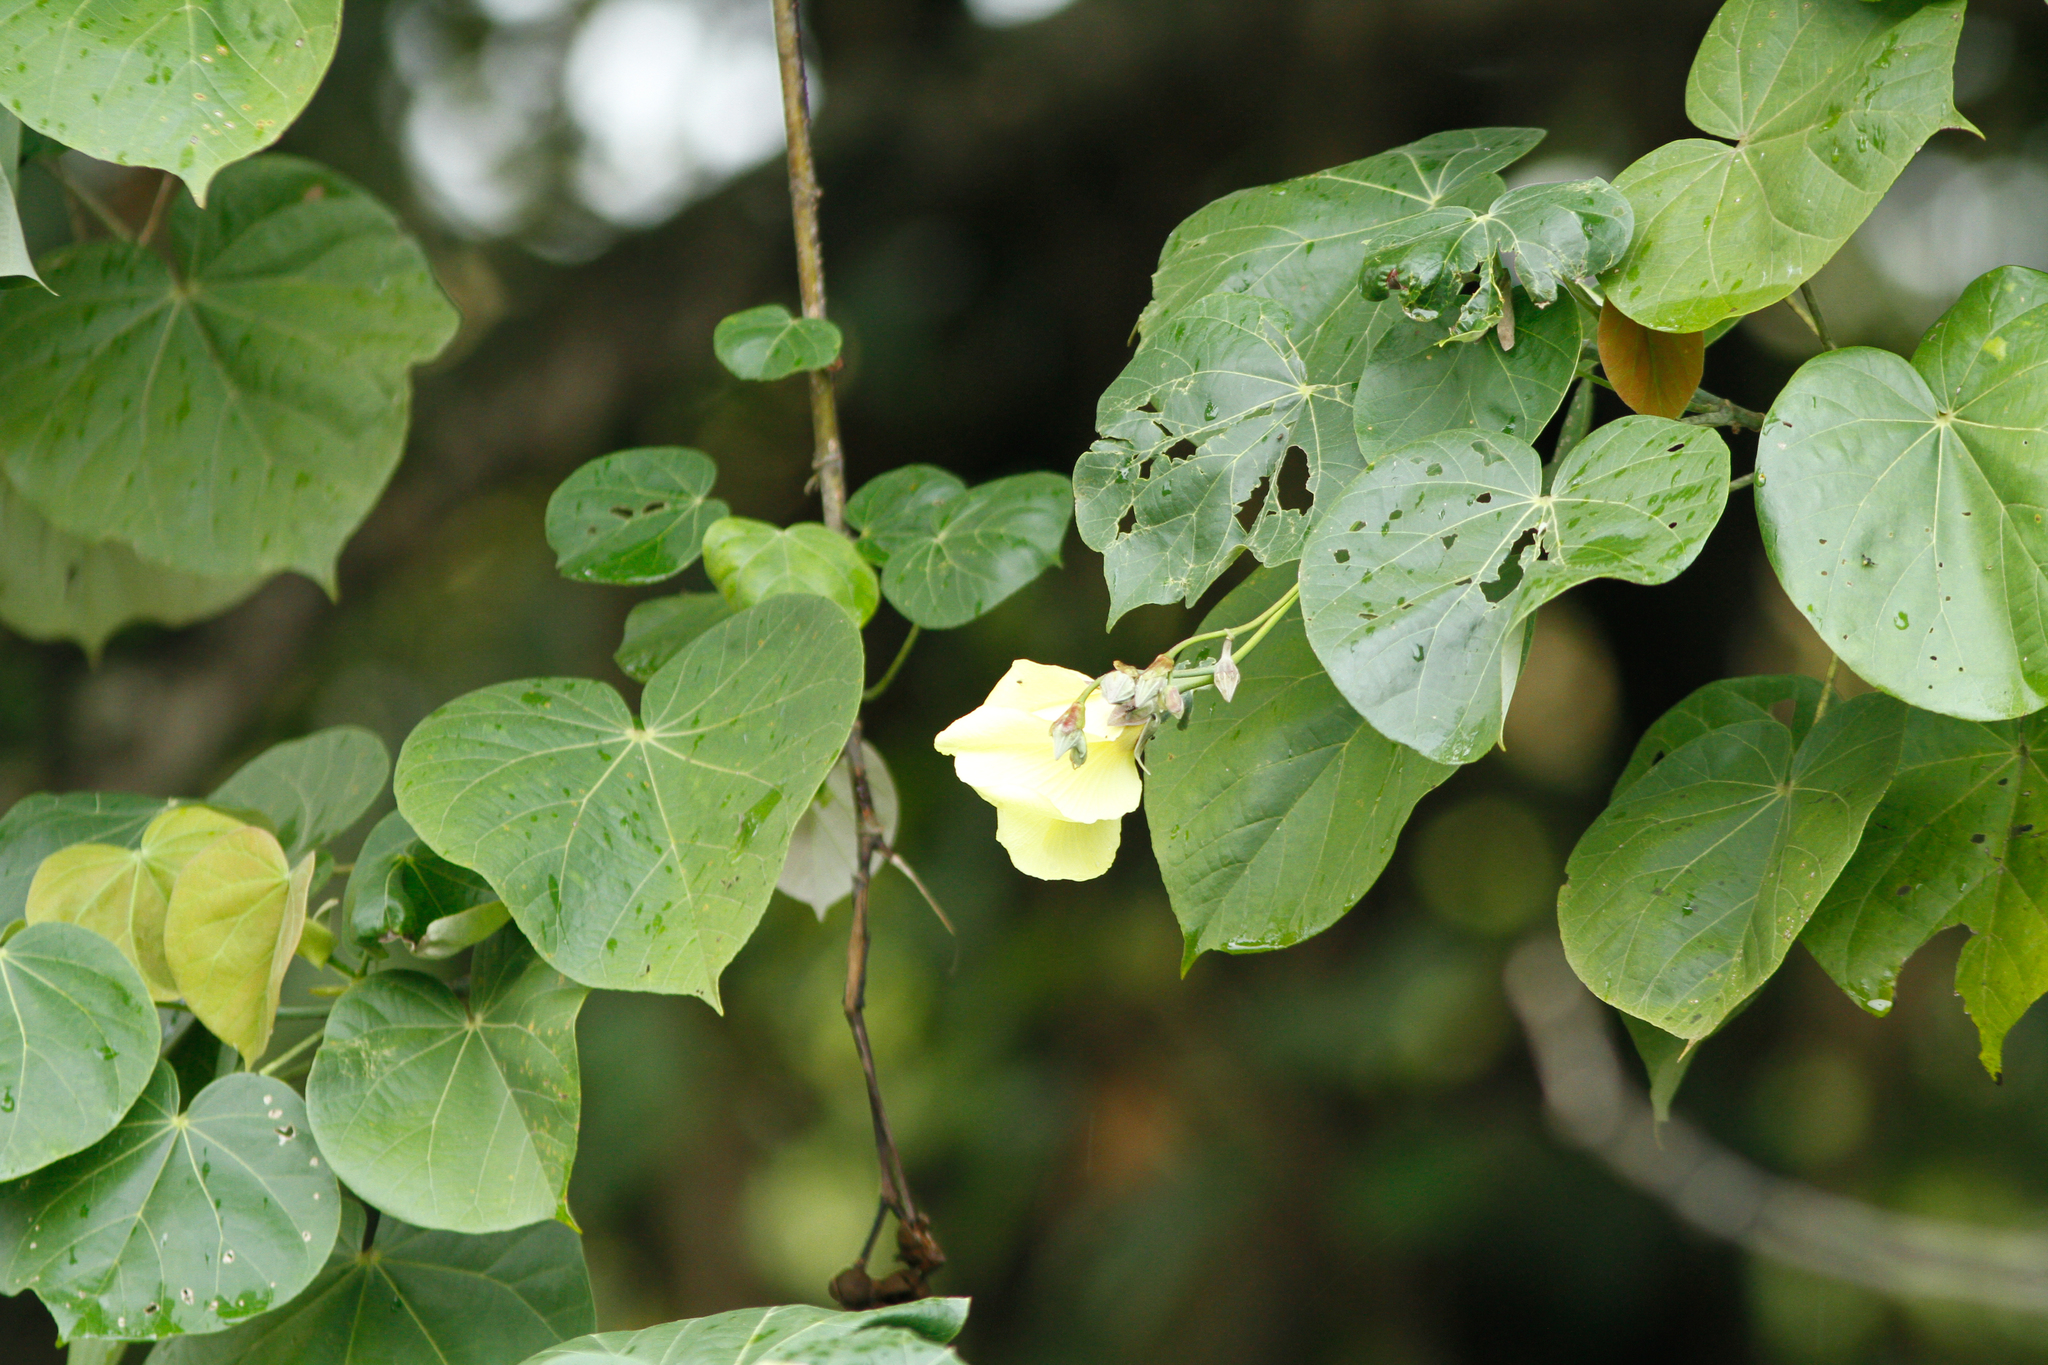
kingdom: Plantae
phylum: Tracheophyta
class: Magnoliopsida
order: Malvales
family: Malvaceae
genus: Talipariti
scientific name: Talipariti tiliaceum
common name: Sea hibiscus
